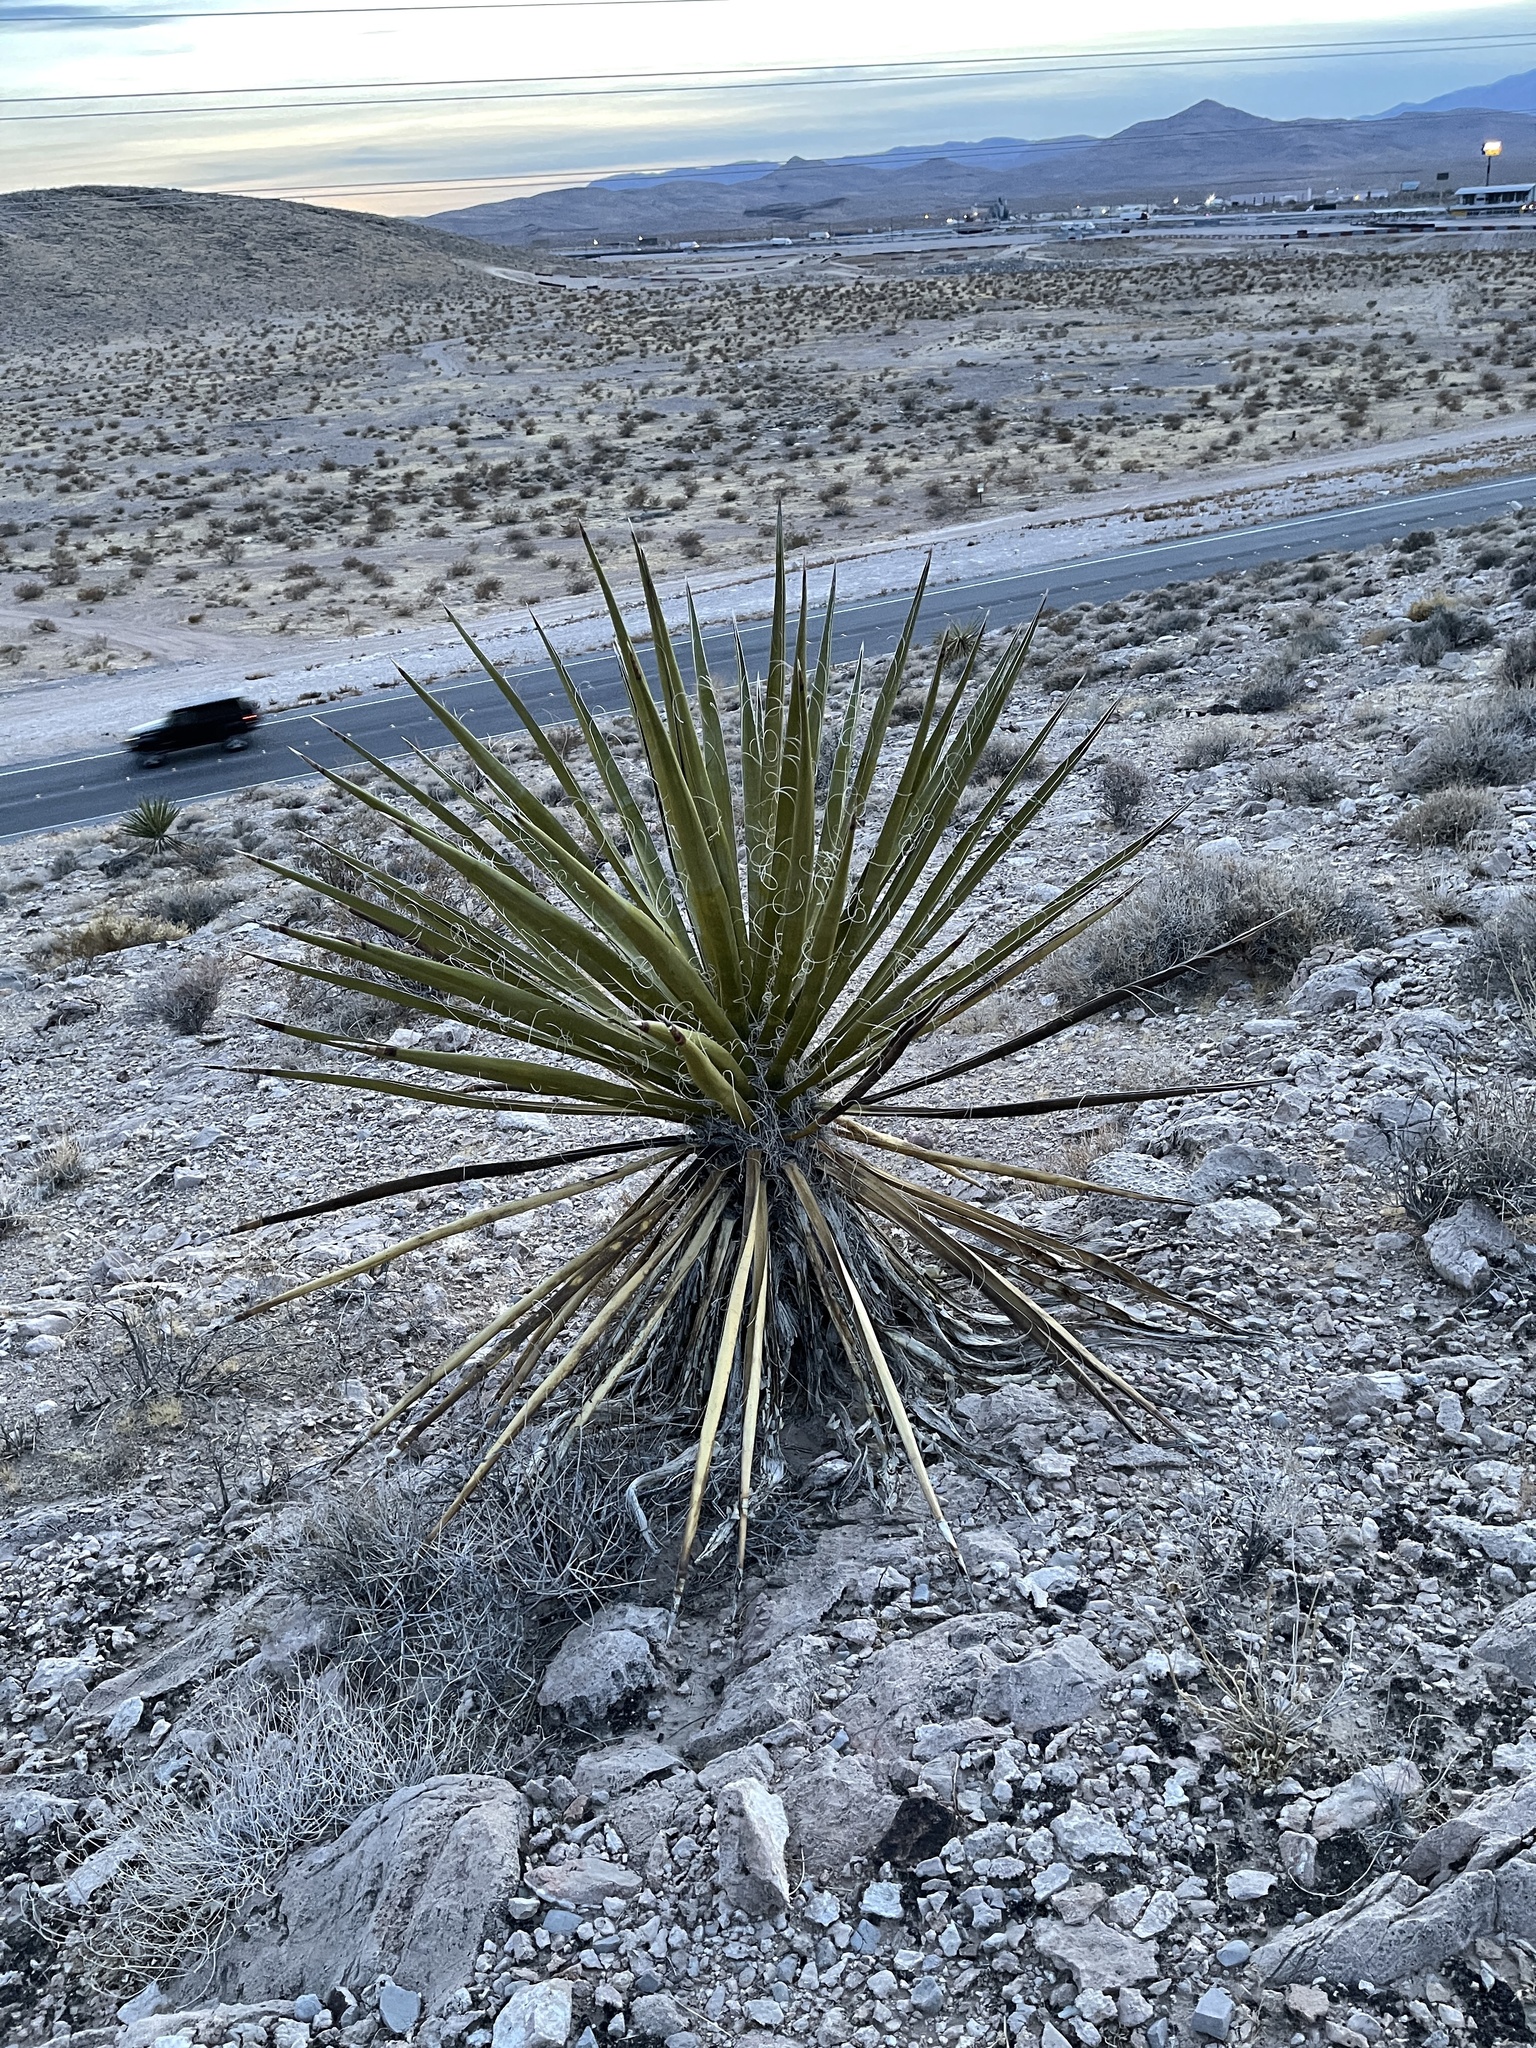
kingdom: Plantae
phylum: Tracheophyta
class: Liliopsida
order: Asparagales
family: Asparagaceae
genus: Yucca
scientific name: Yucca schidigera
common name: Mojave yucca
